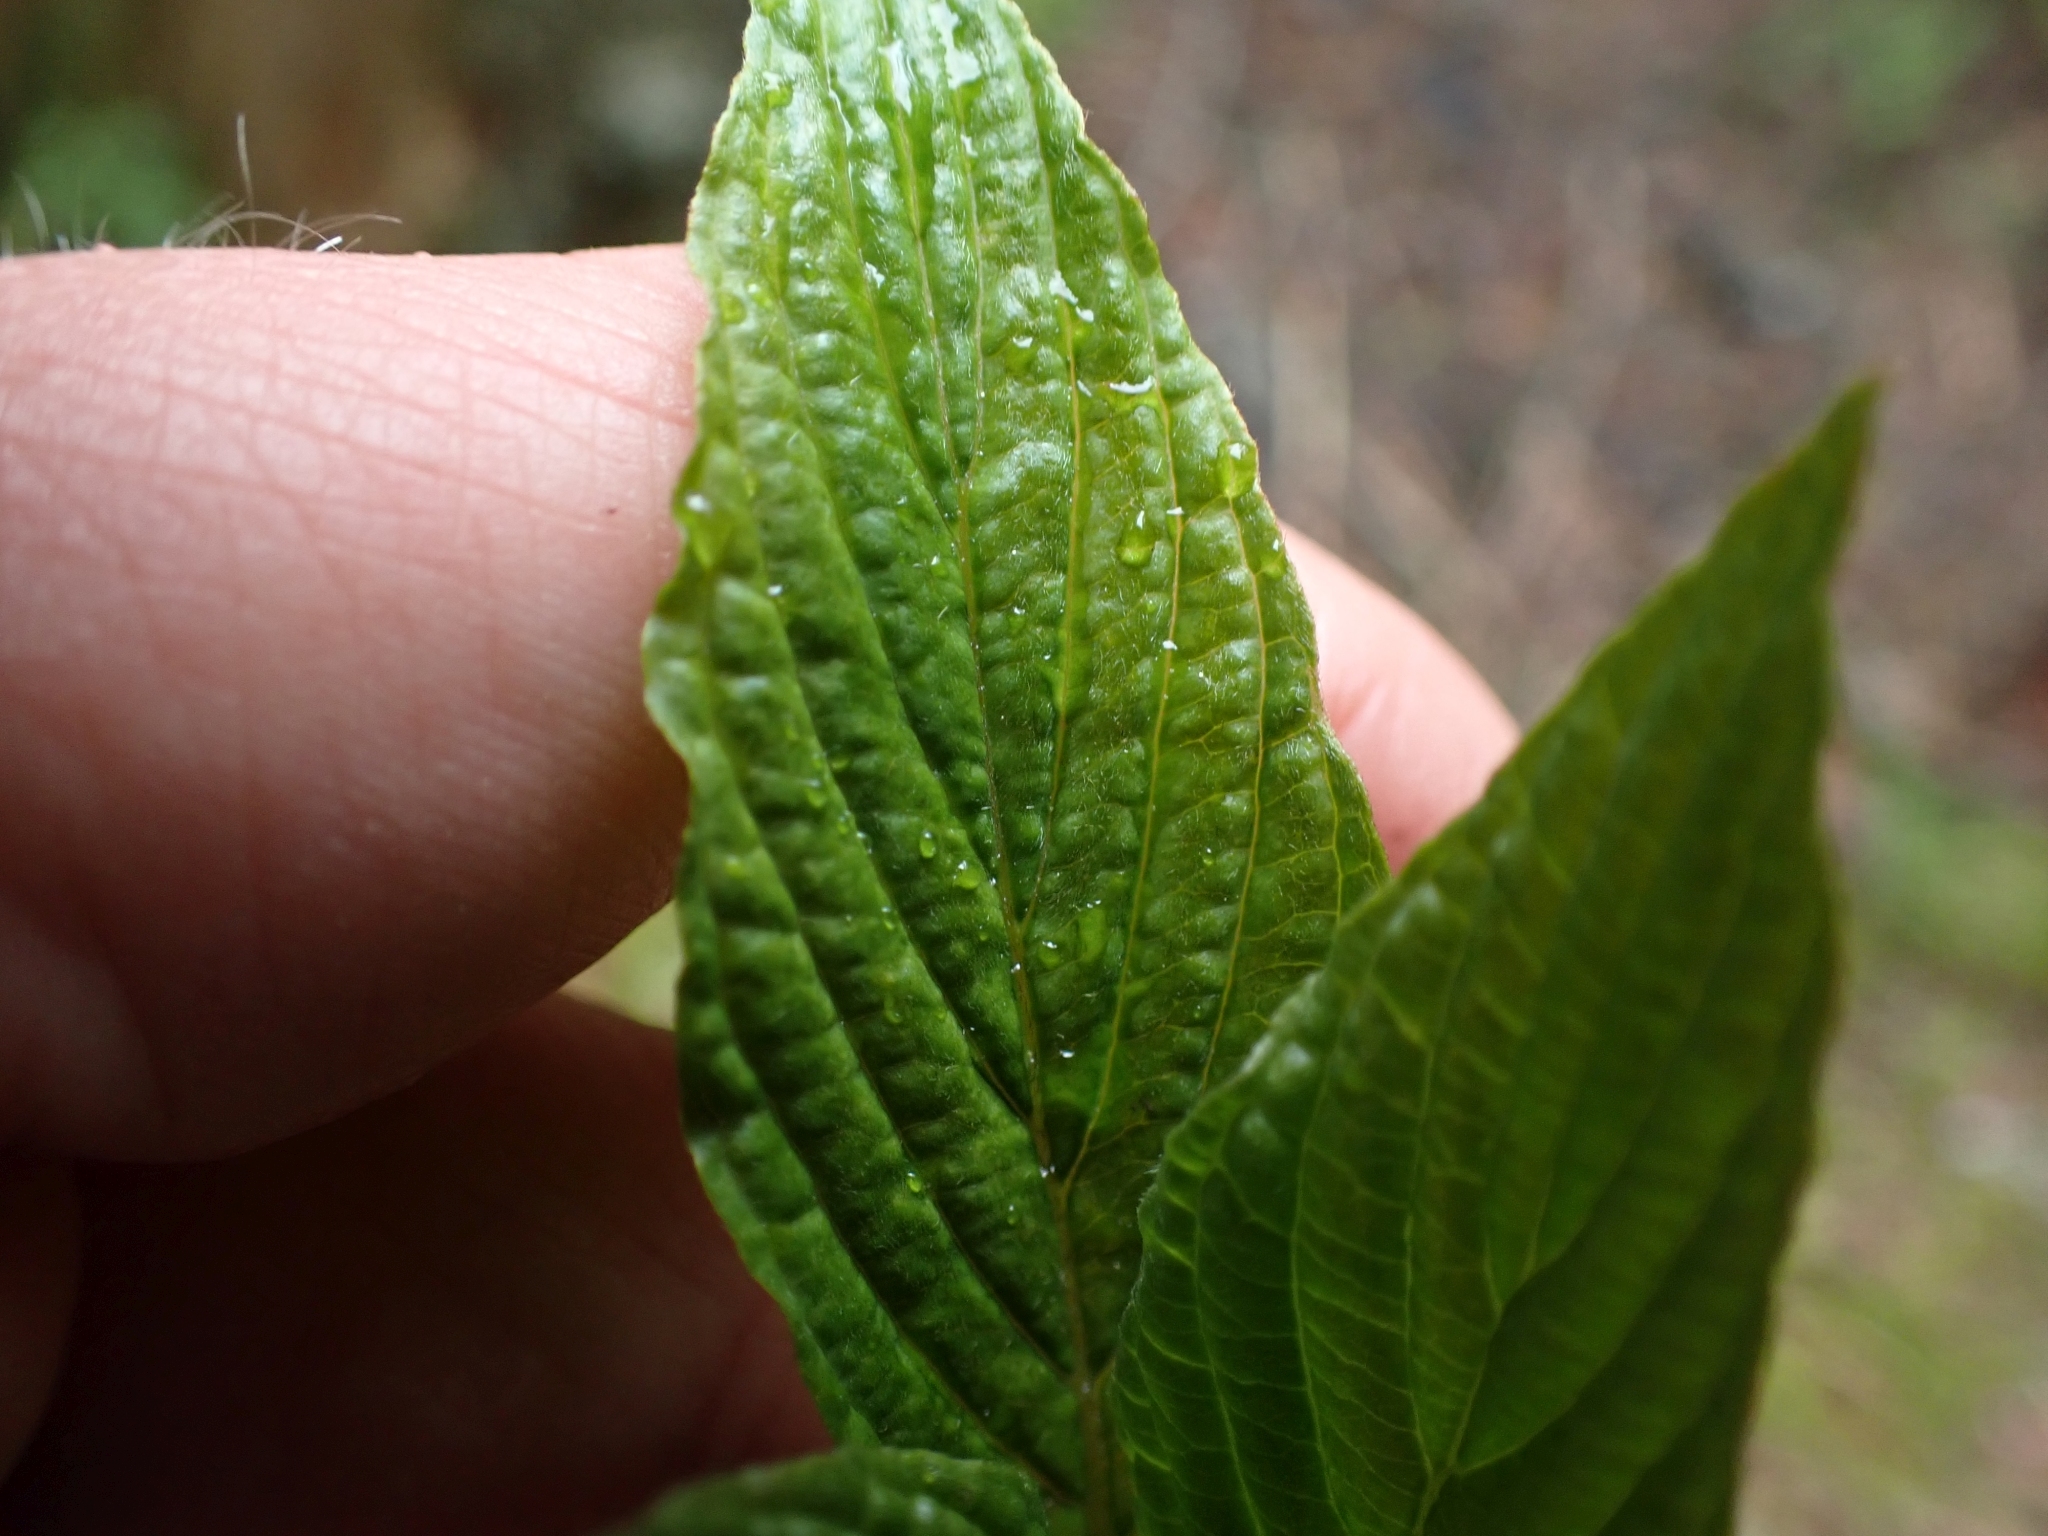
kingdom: Plantae
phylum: Tracheophyta
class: Magnoliopsida
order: Cornales
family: Cornaceae
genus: Cornus
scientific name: Cornus sericea
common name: Red-osier dogwood
